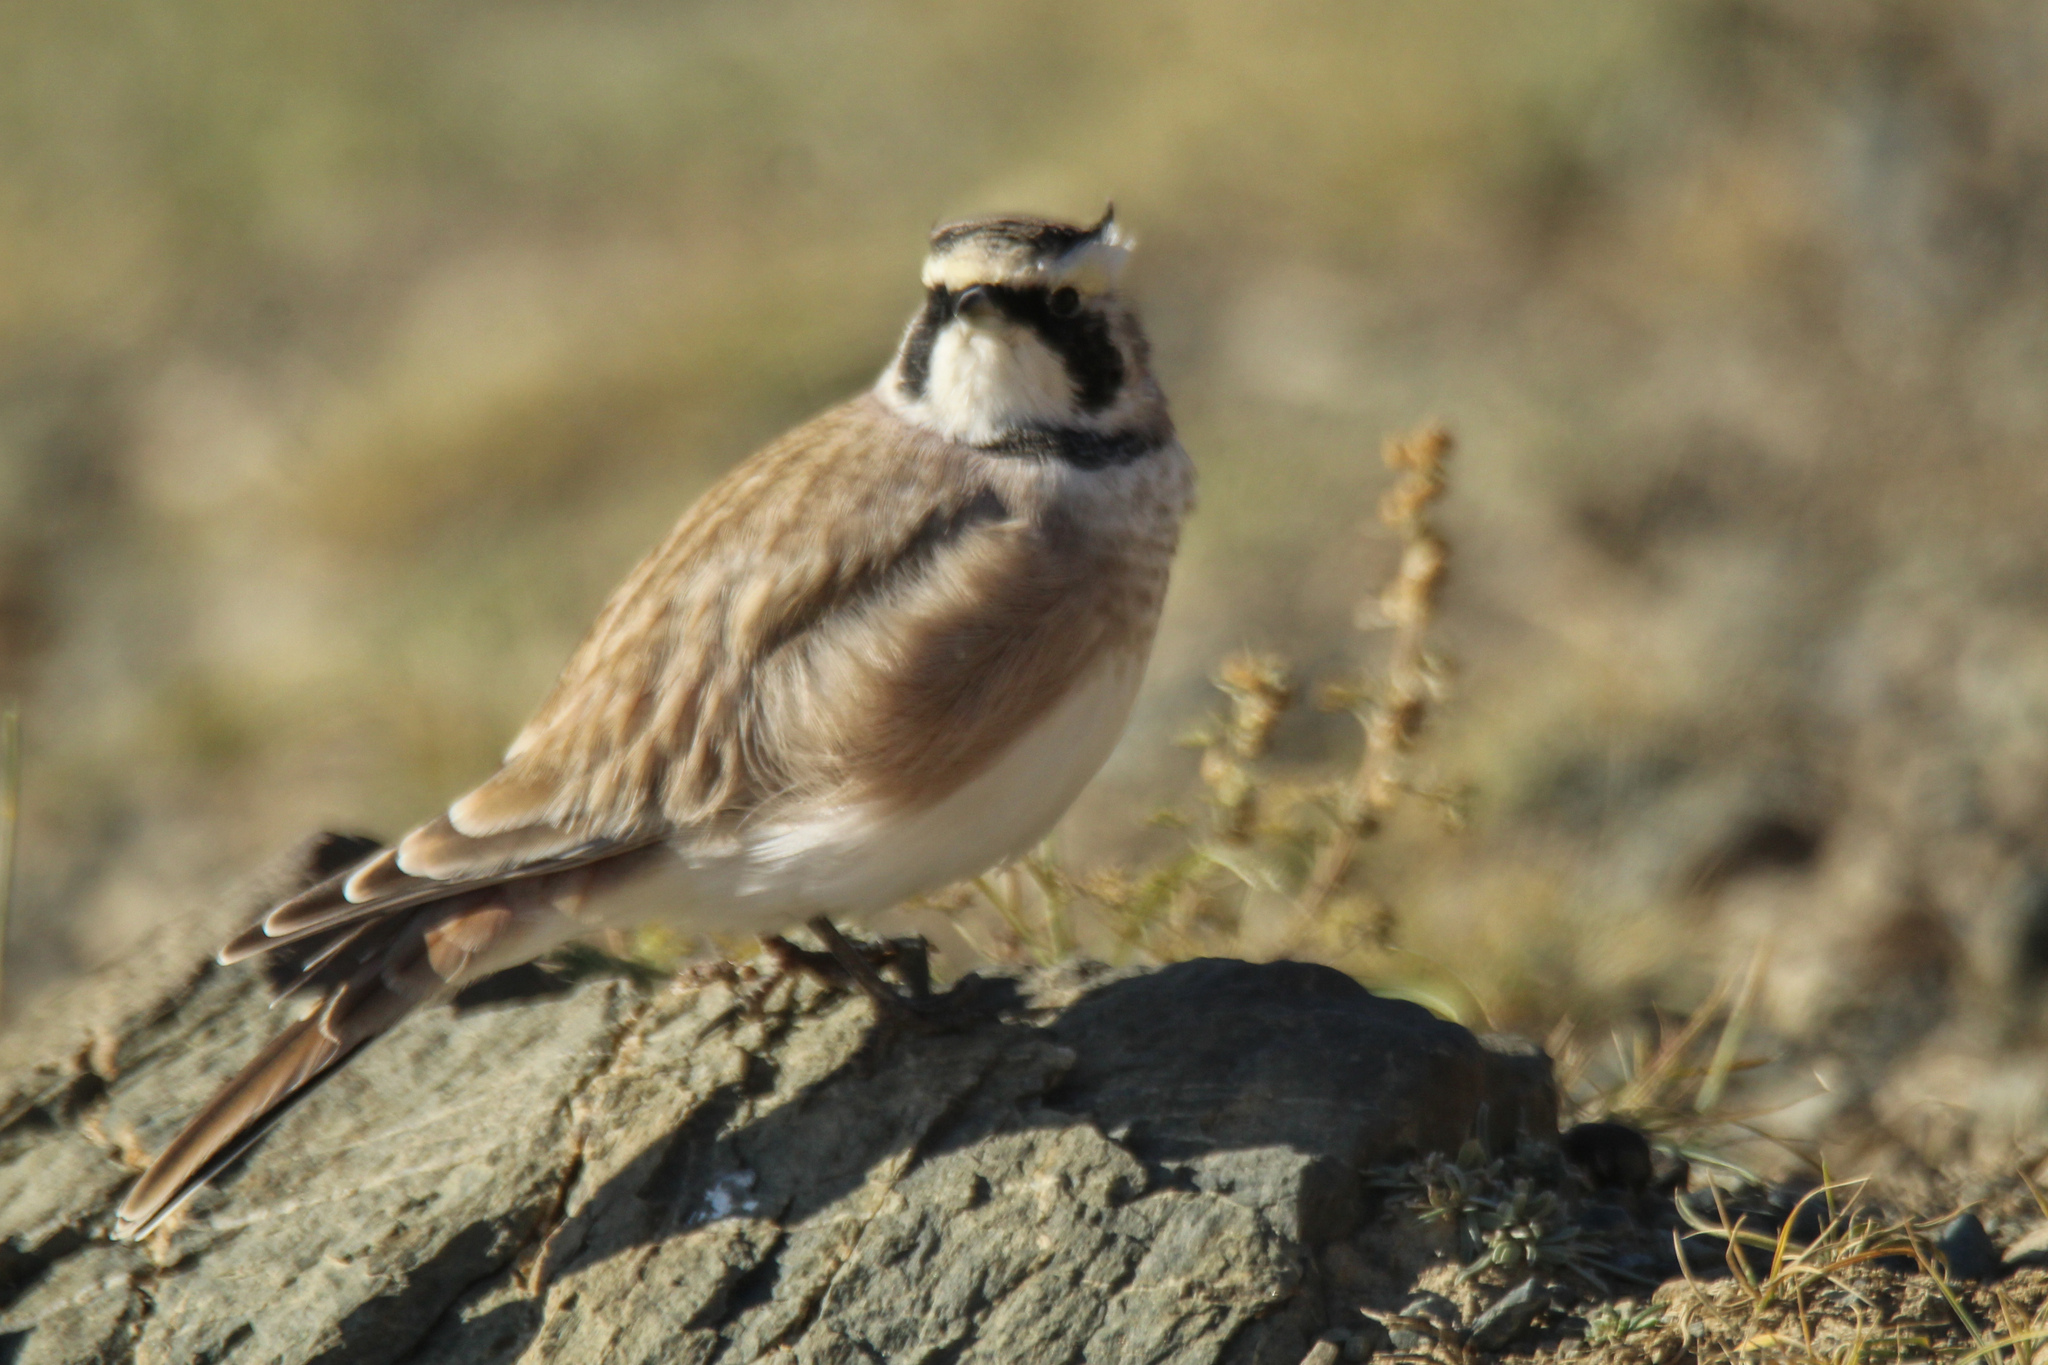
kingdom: Animalia
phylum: Chordata
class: Aves
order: Passeriformes
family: Alaudidae
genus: Eremophila
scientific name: Eremophila alpestris
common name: Horned lark
